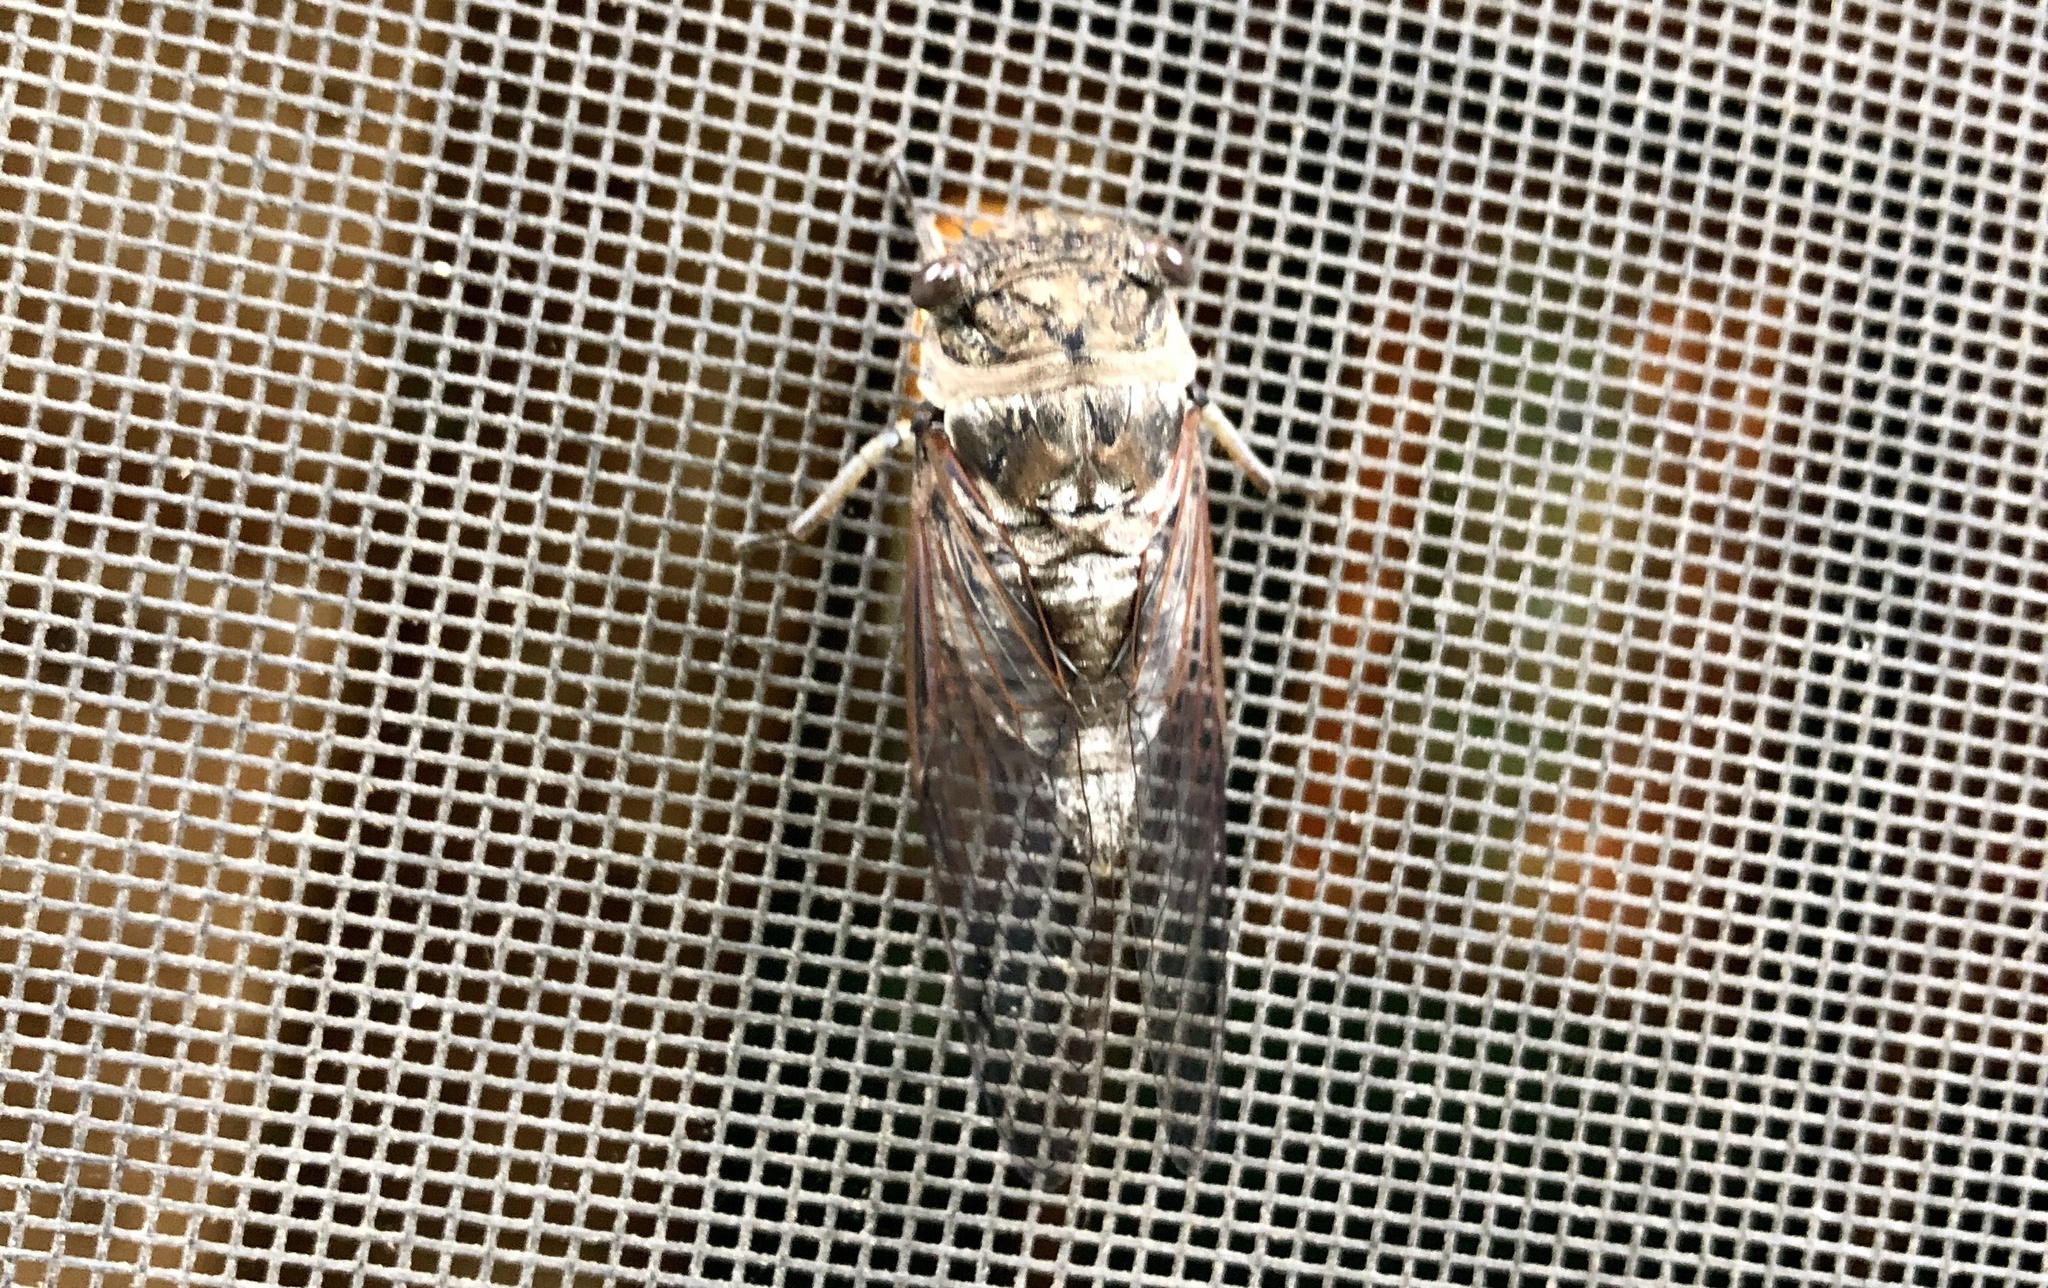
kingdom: Animalia
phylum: Arthropoda
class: Insecta
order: Hemiptera
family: Cicadidae
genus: Neotibicen
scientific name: Neotibicen canicularis
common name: God-day cicada
